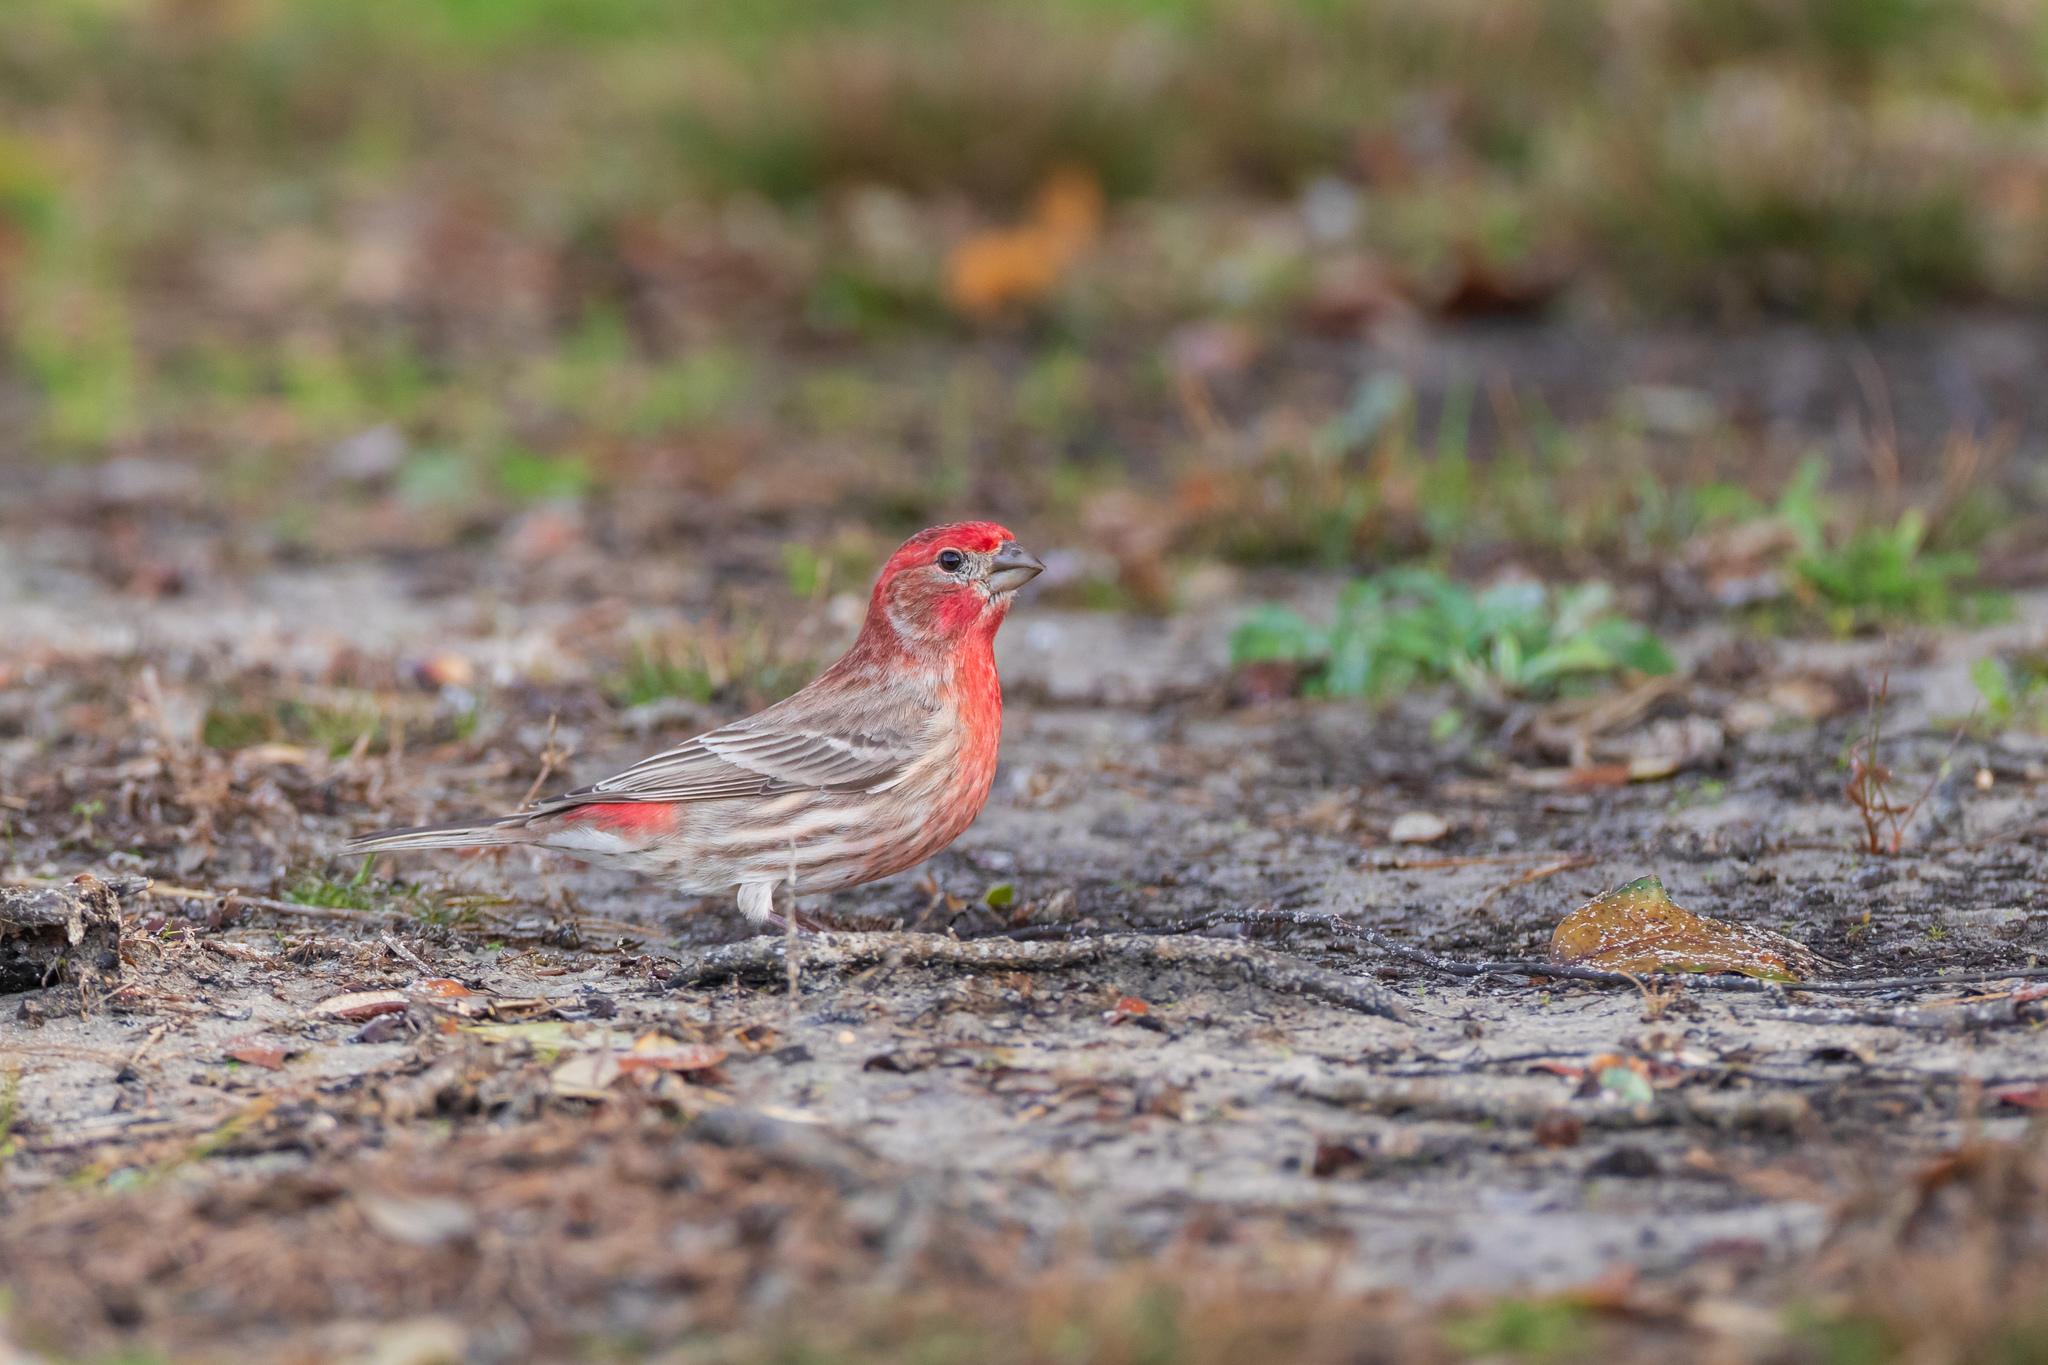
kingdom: Animalia
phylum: Chordata
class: Aves
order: Passeriformes
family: Fringillidae
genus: Haemorhous
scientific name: Haemorhous mexicanus
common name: House finch
